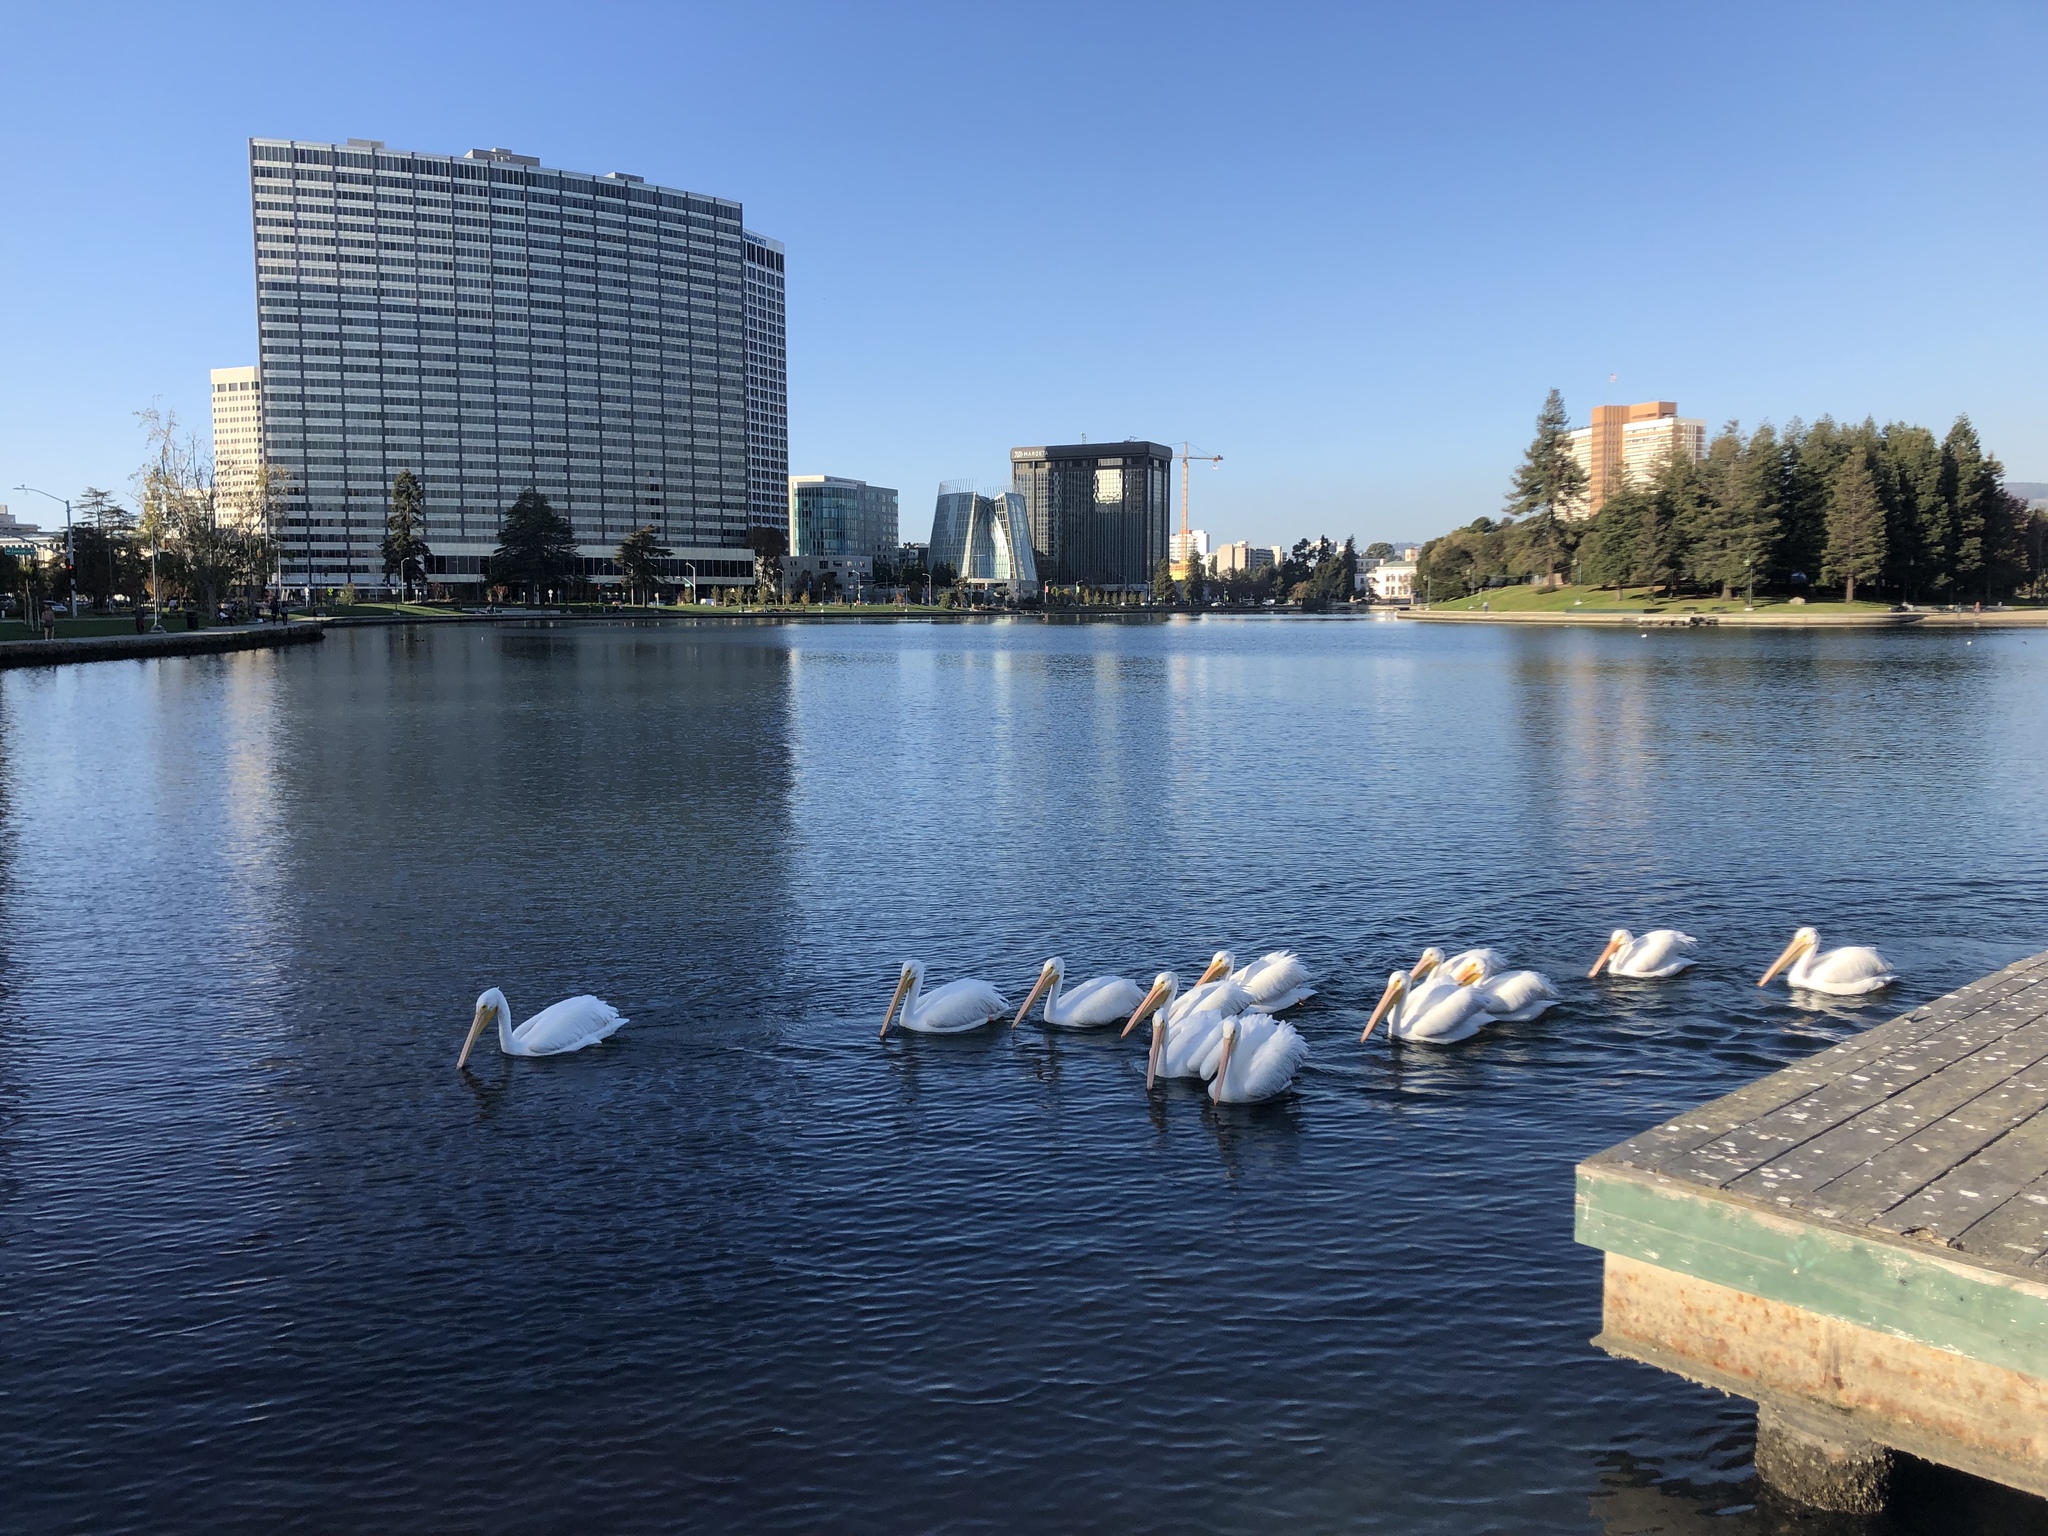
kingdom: Animalia
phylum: Chordata
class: Aves
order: Pelecaniformes
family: Pelecanidae
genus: Pelecanus
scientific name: Pelecanus erythrorhynchos
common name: American white pelican
